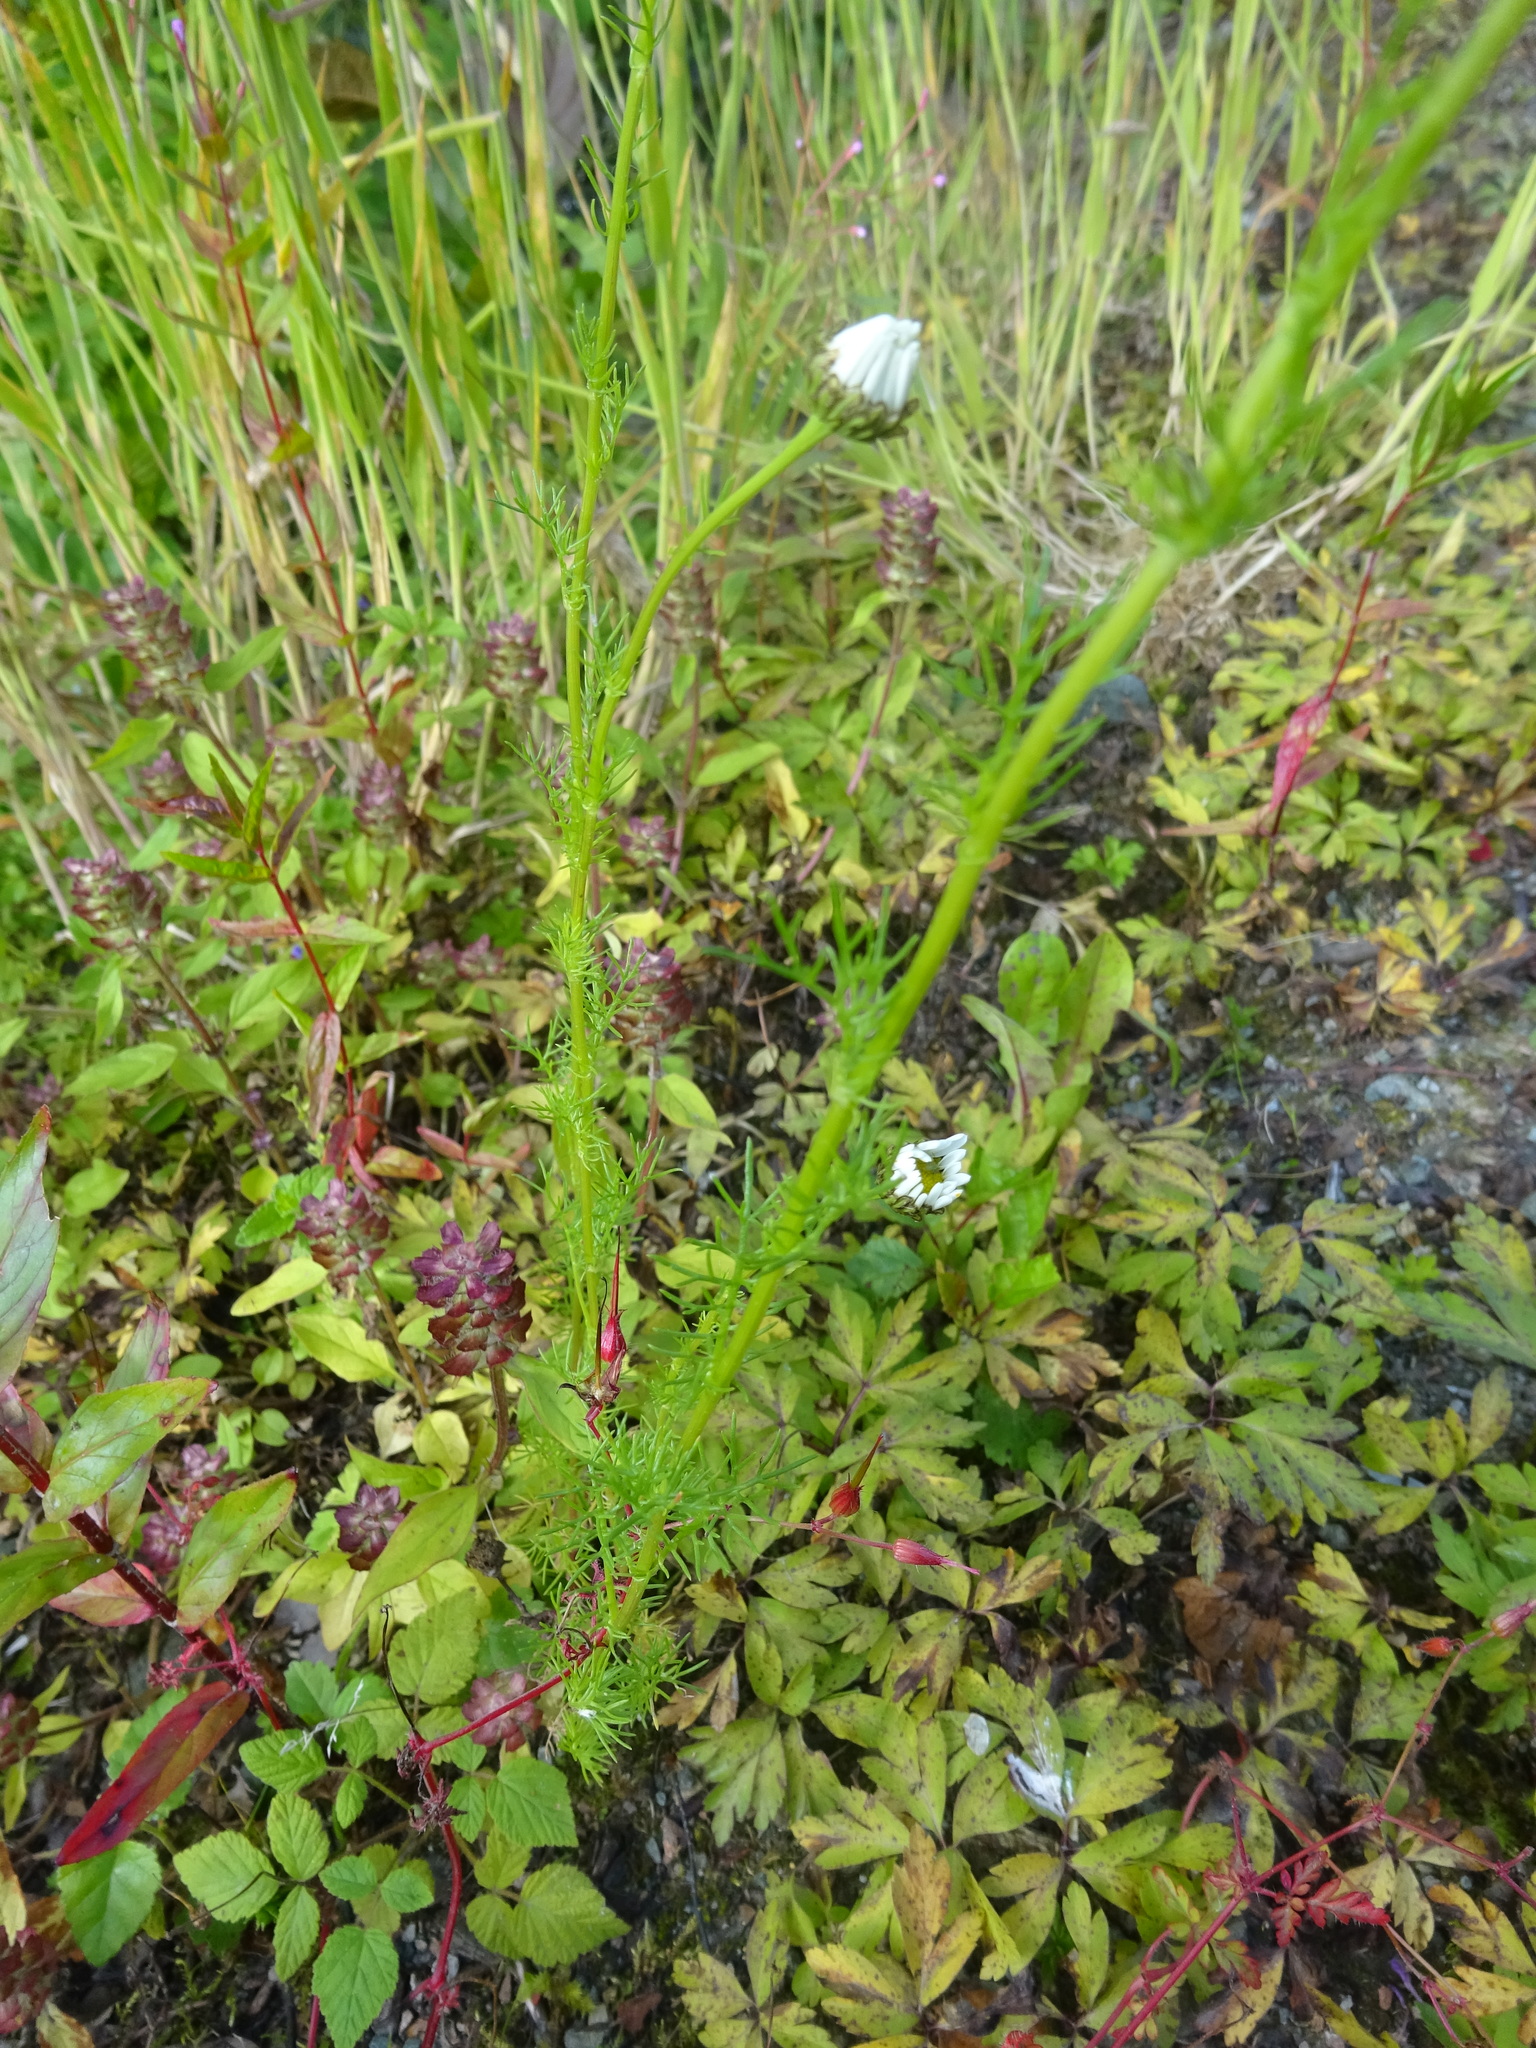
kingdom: Plantae
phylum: Tracheophyta
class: Magnoliopsida
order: Asterales
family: Asteraceae
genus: Tripleurospermum
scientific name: Tripleurospermum inodorum
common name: Scentless mayweed
